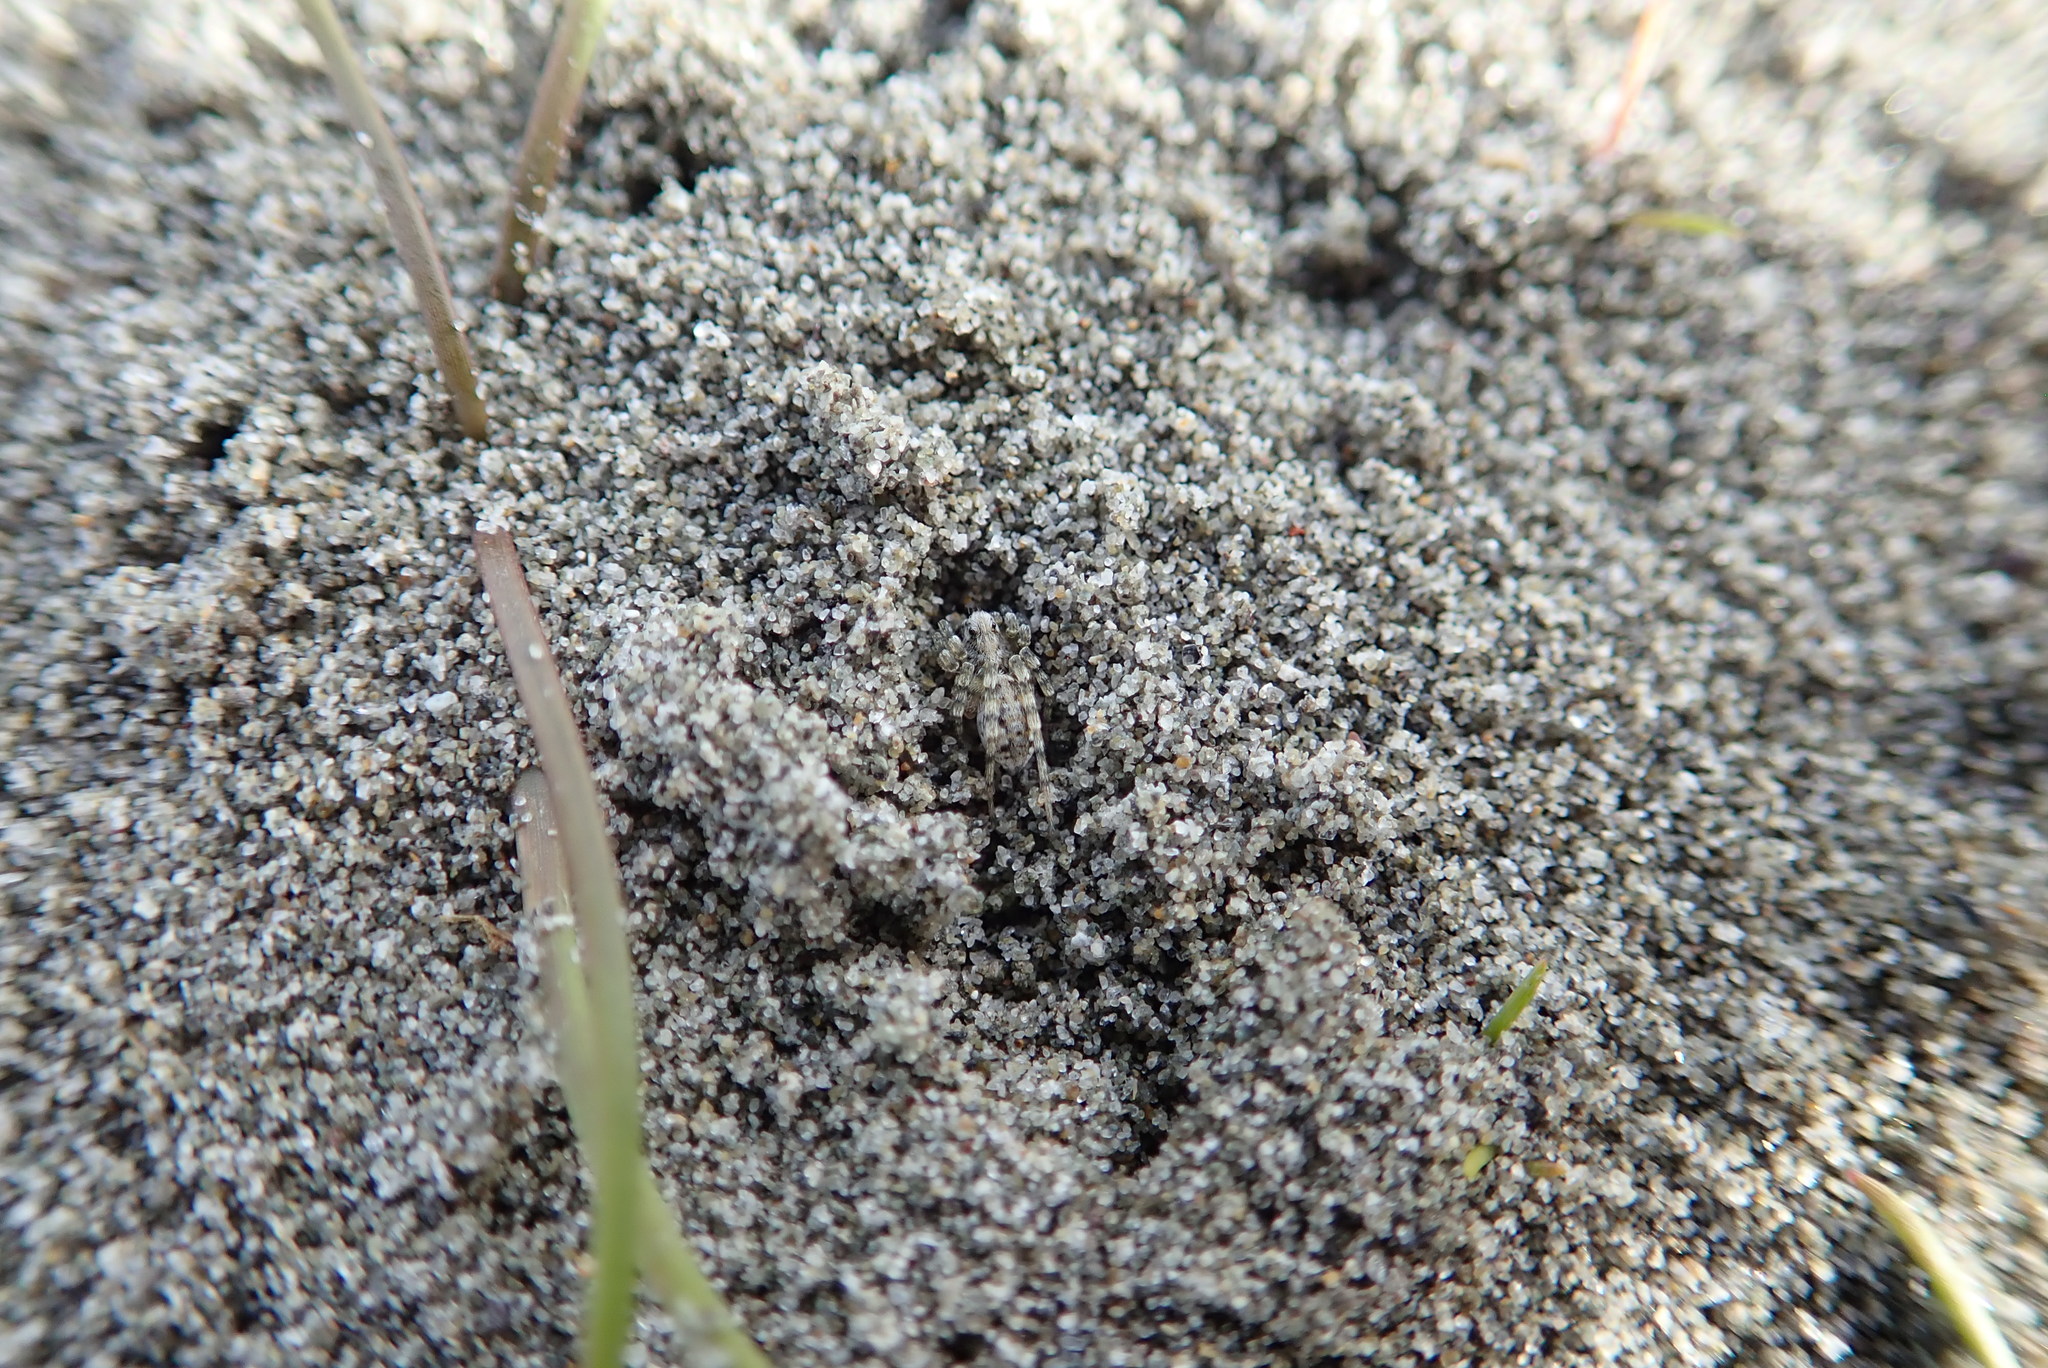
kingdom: Animalia
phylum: Arthropoda
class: Arachnida
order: Araneae
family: Lycosidae
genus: Anoteropsis
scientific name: Anoteropsis litoralis
